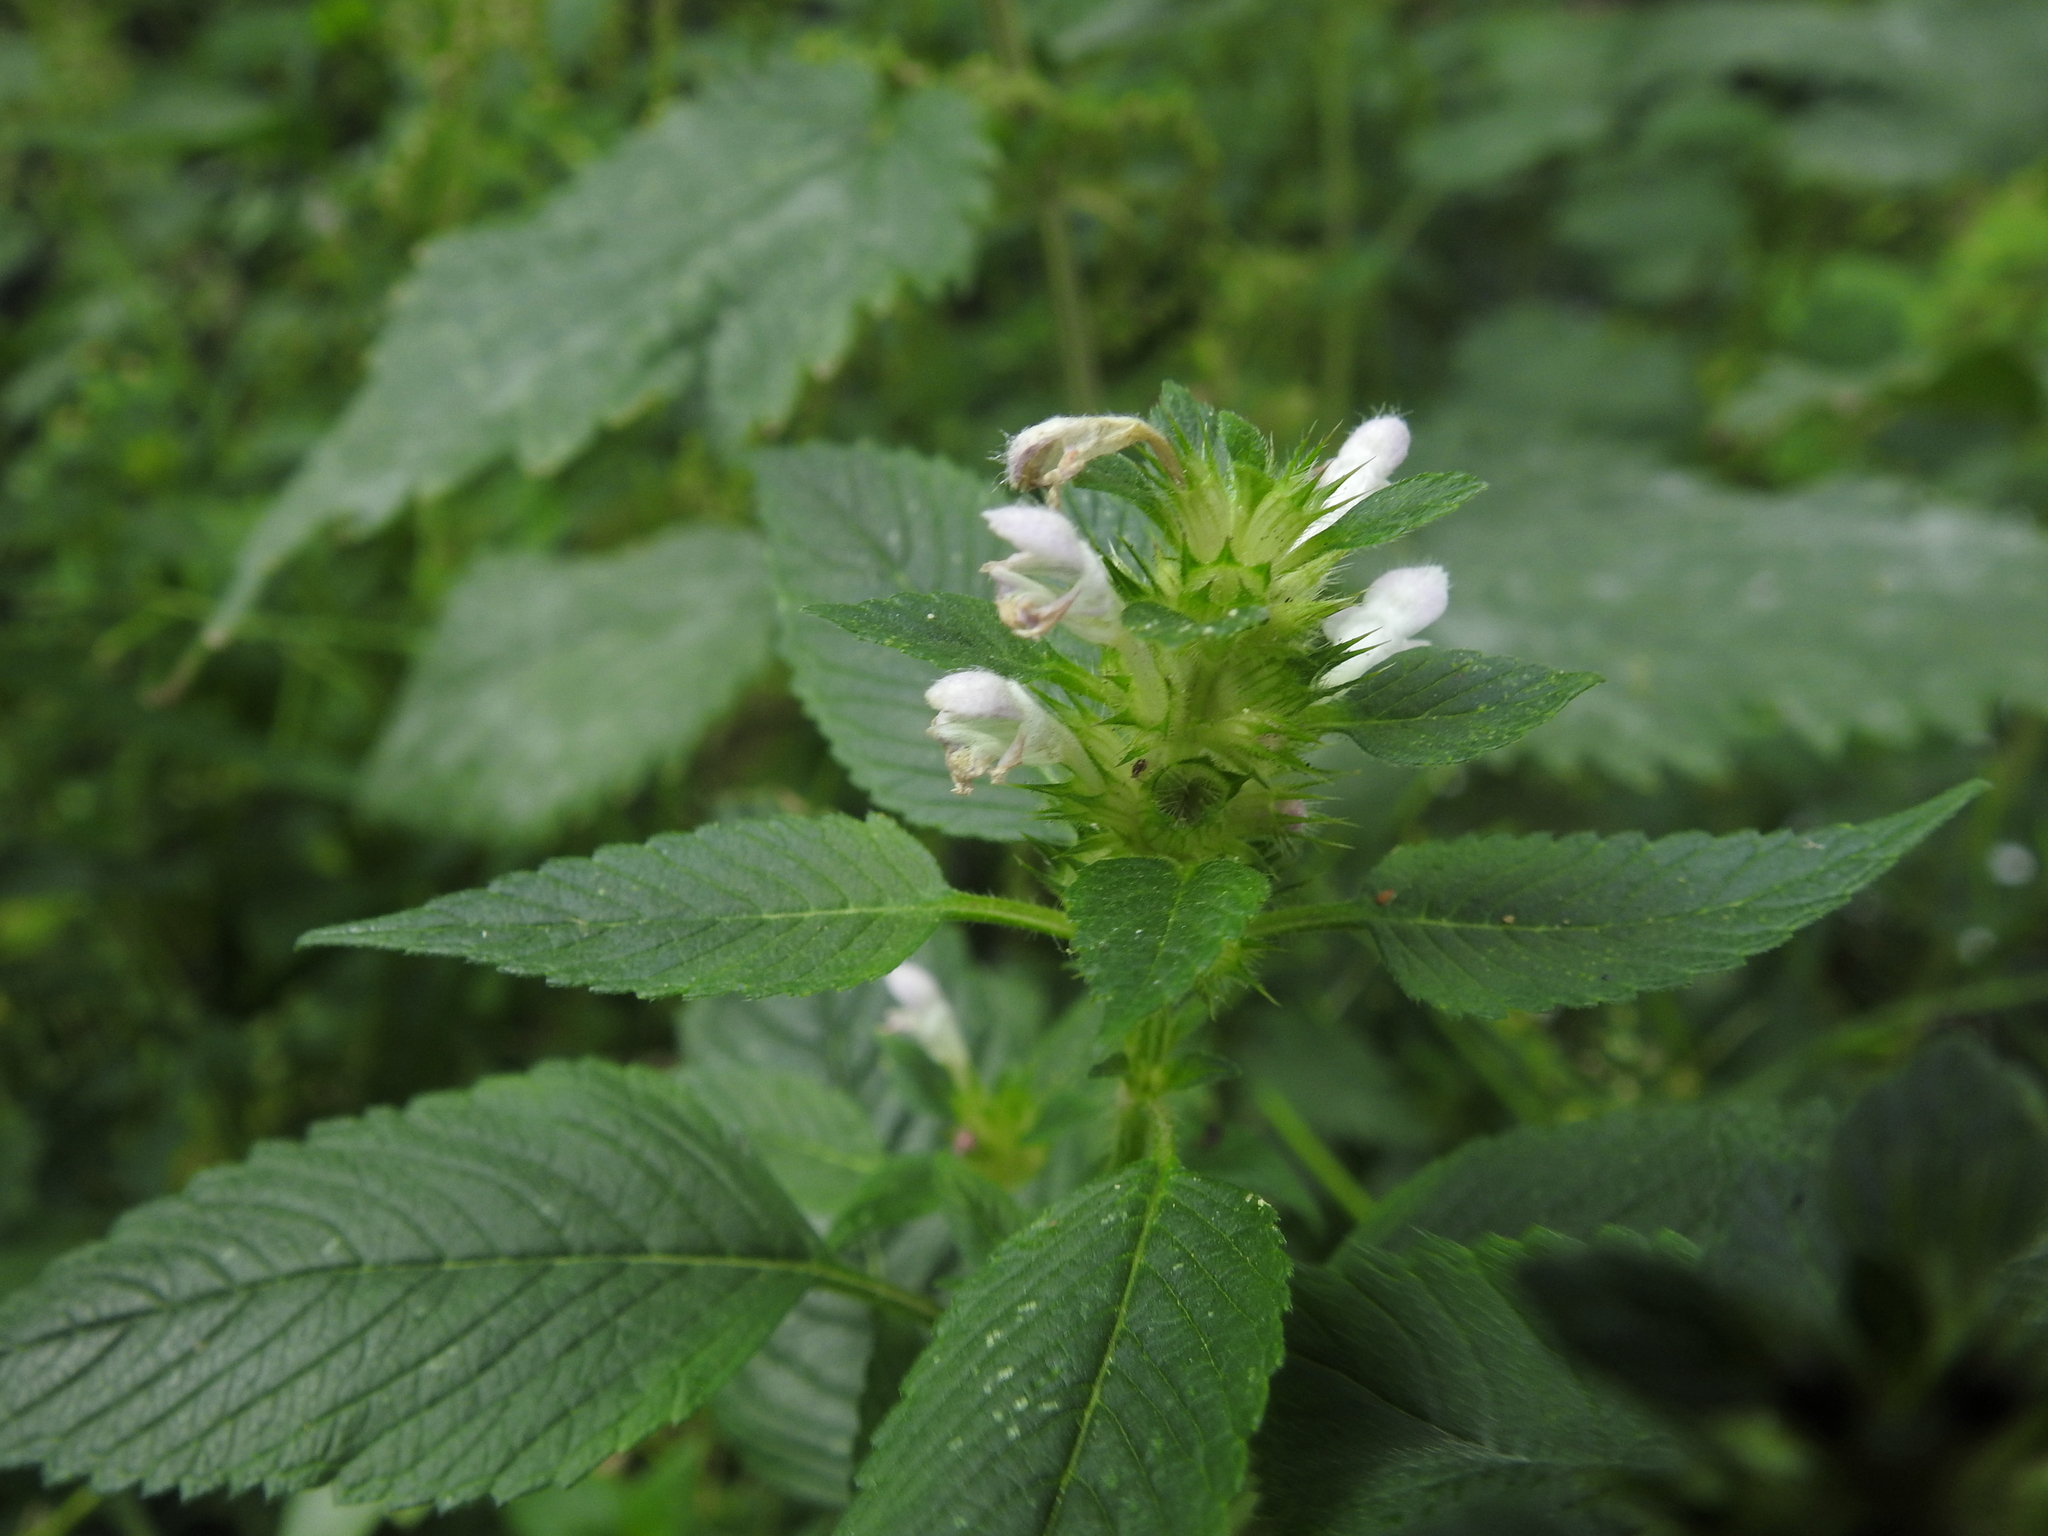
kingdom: Plantae
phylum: Tracheophyta
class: Magnoliopsida
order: Lamiales
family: Lamiaceae
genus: Galeopsis
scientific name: Galeopsis tetrahit
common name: Common hemp-nettle
